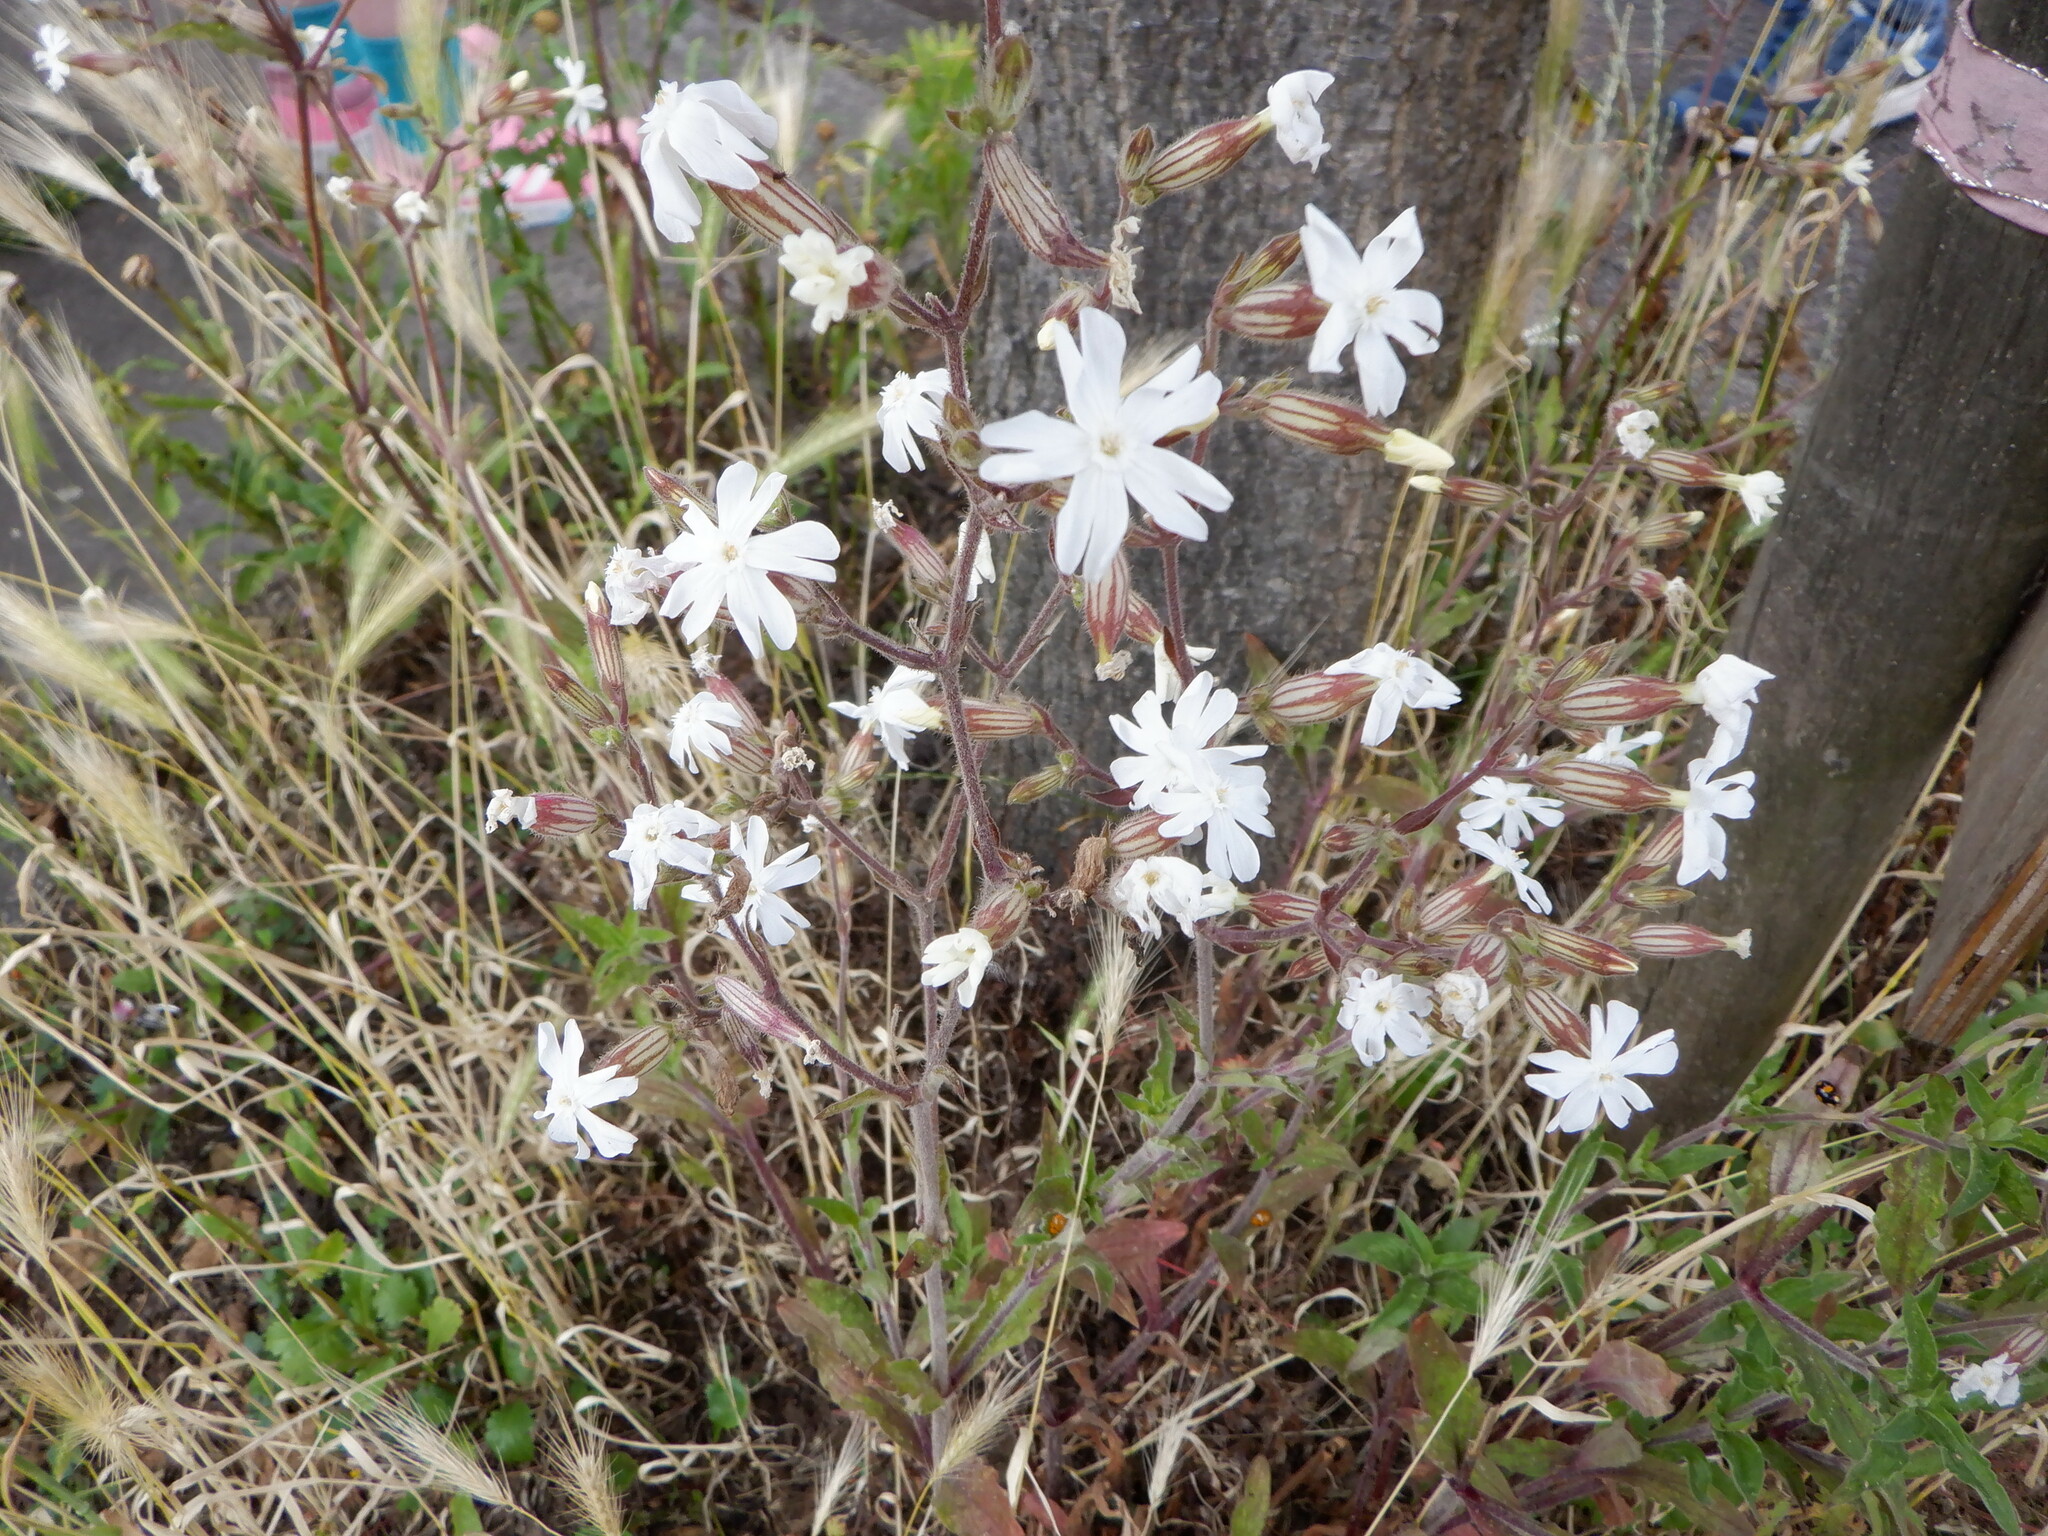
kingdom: Plantae
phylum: Tracheophyta
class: Magnoliopsida
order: Caryophyllales
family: Caryophyllaceae
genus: Silene
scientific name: Silene latifolia
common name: White campion
